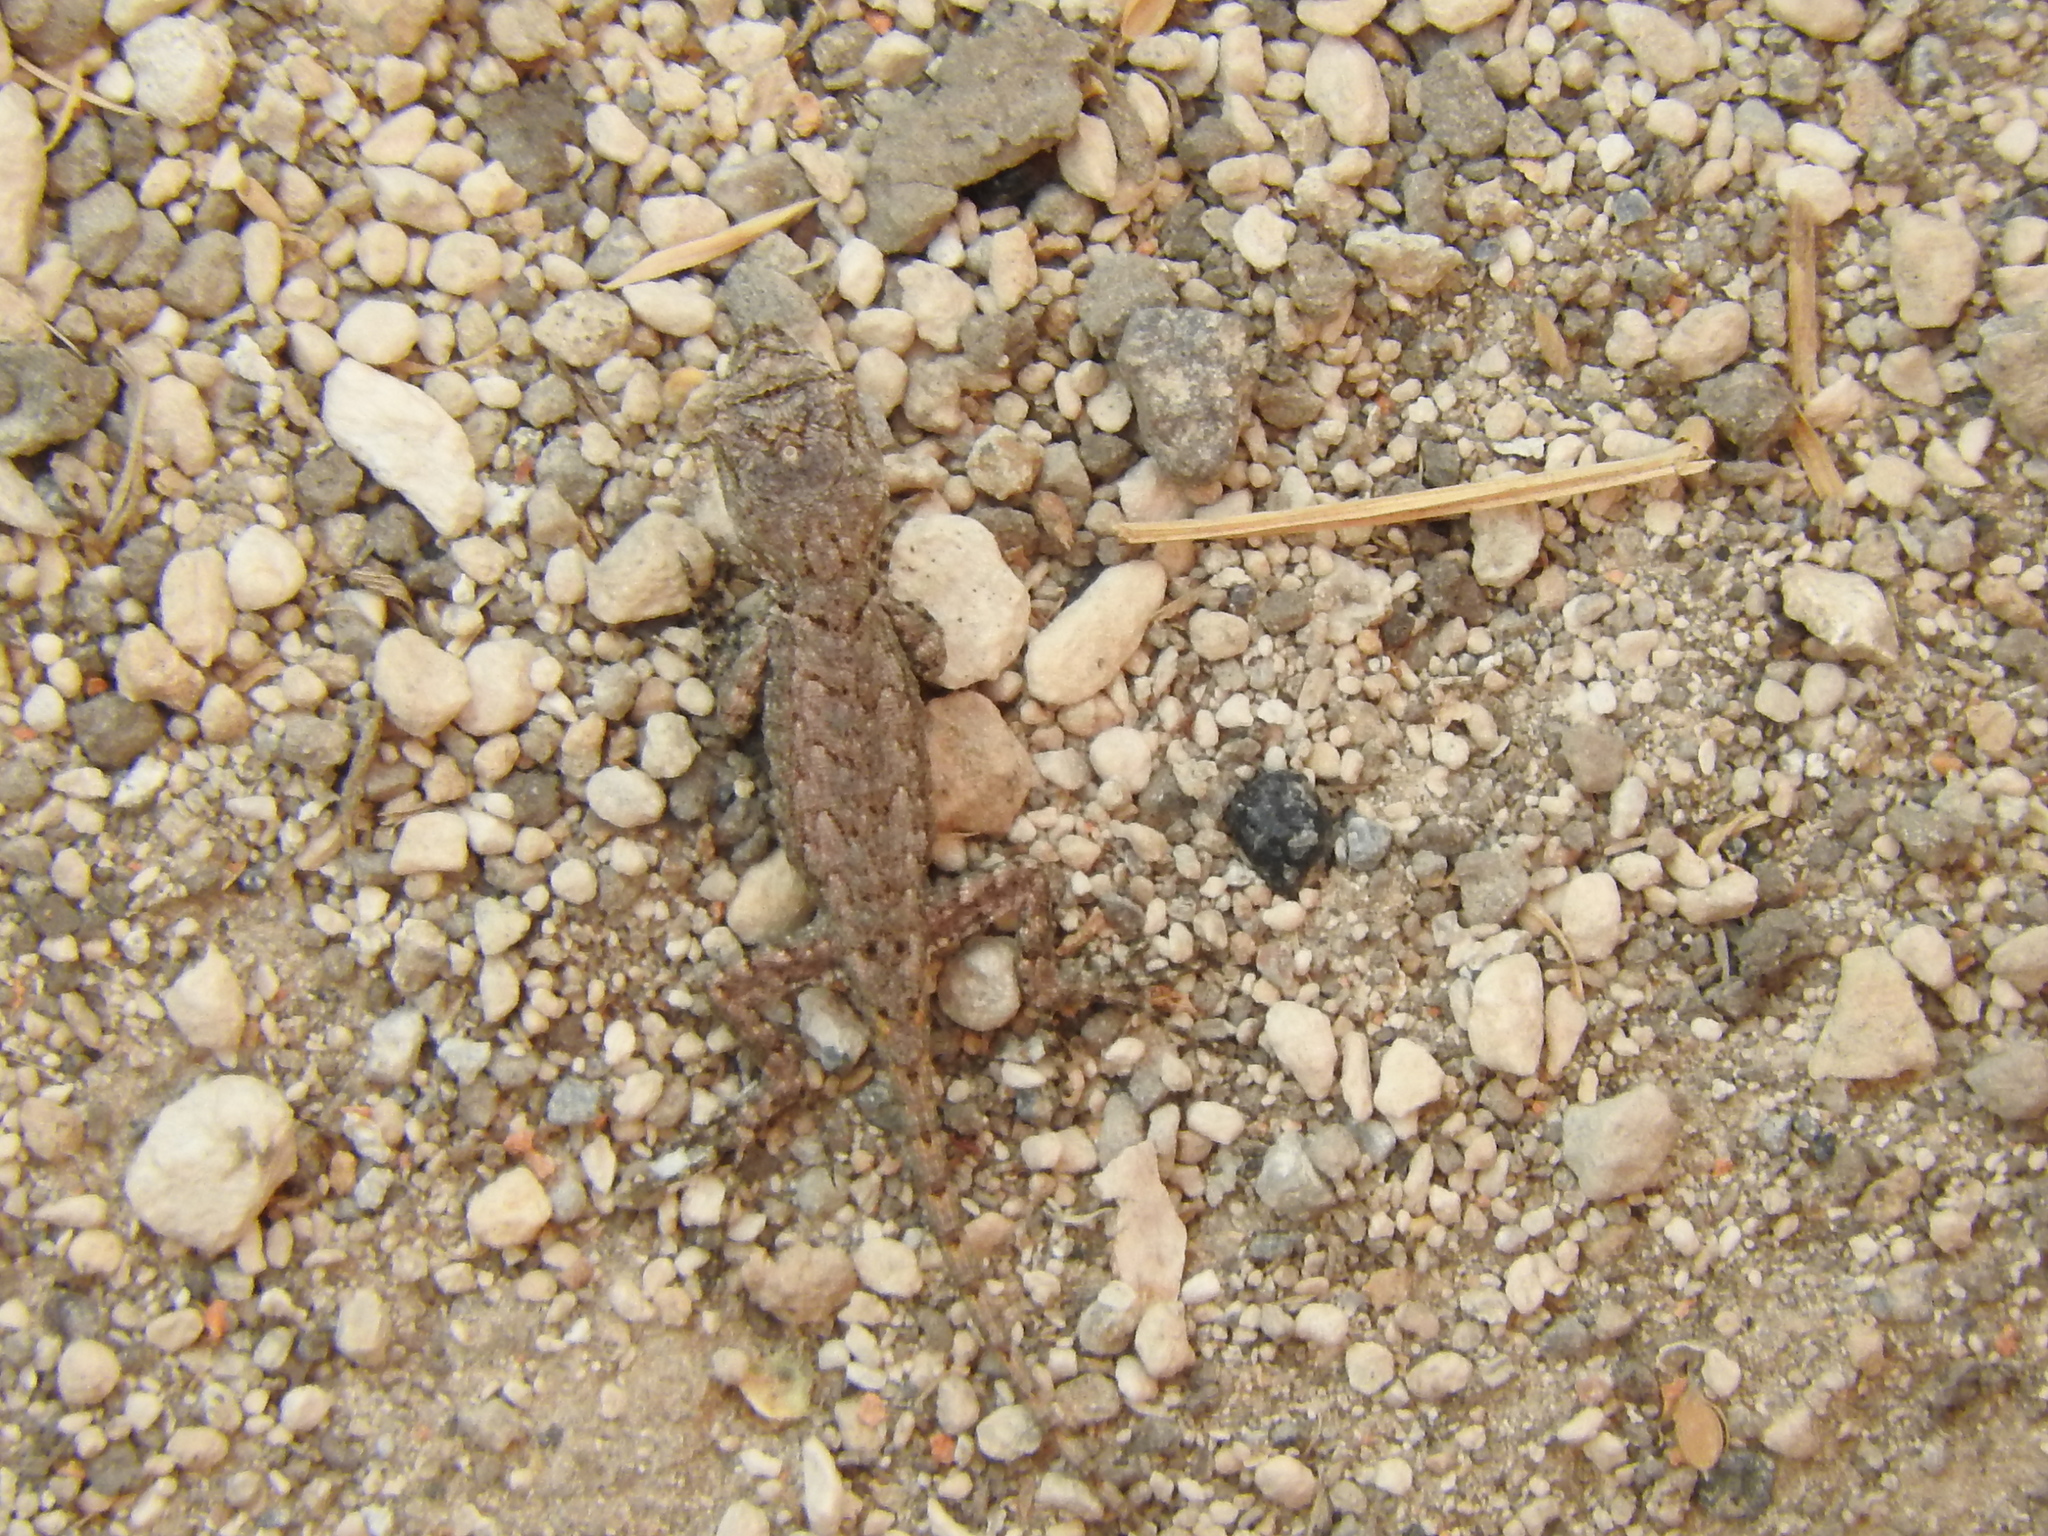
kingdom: Animalia
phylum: Chordata
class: Squamata
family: Phrynosomatidae
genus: Sceloporus
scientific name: Sceloporus grammicus
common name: Mesquite lizard
